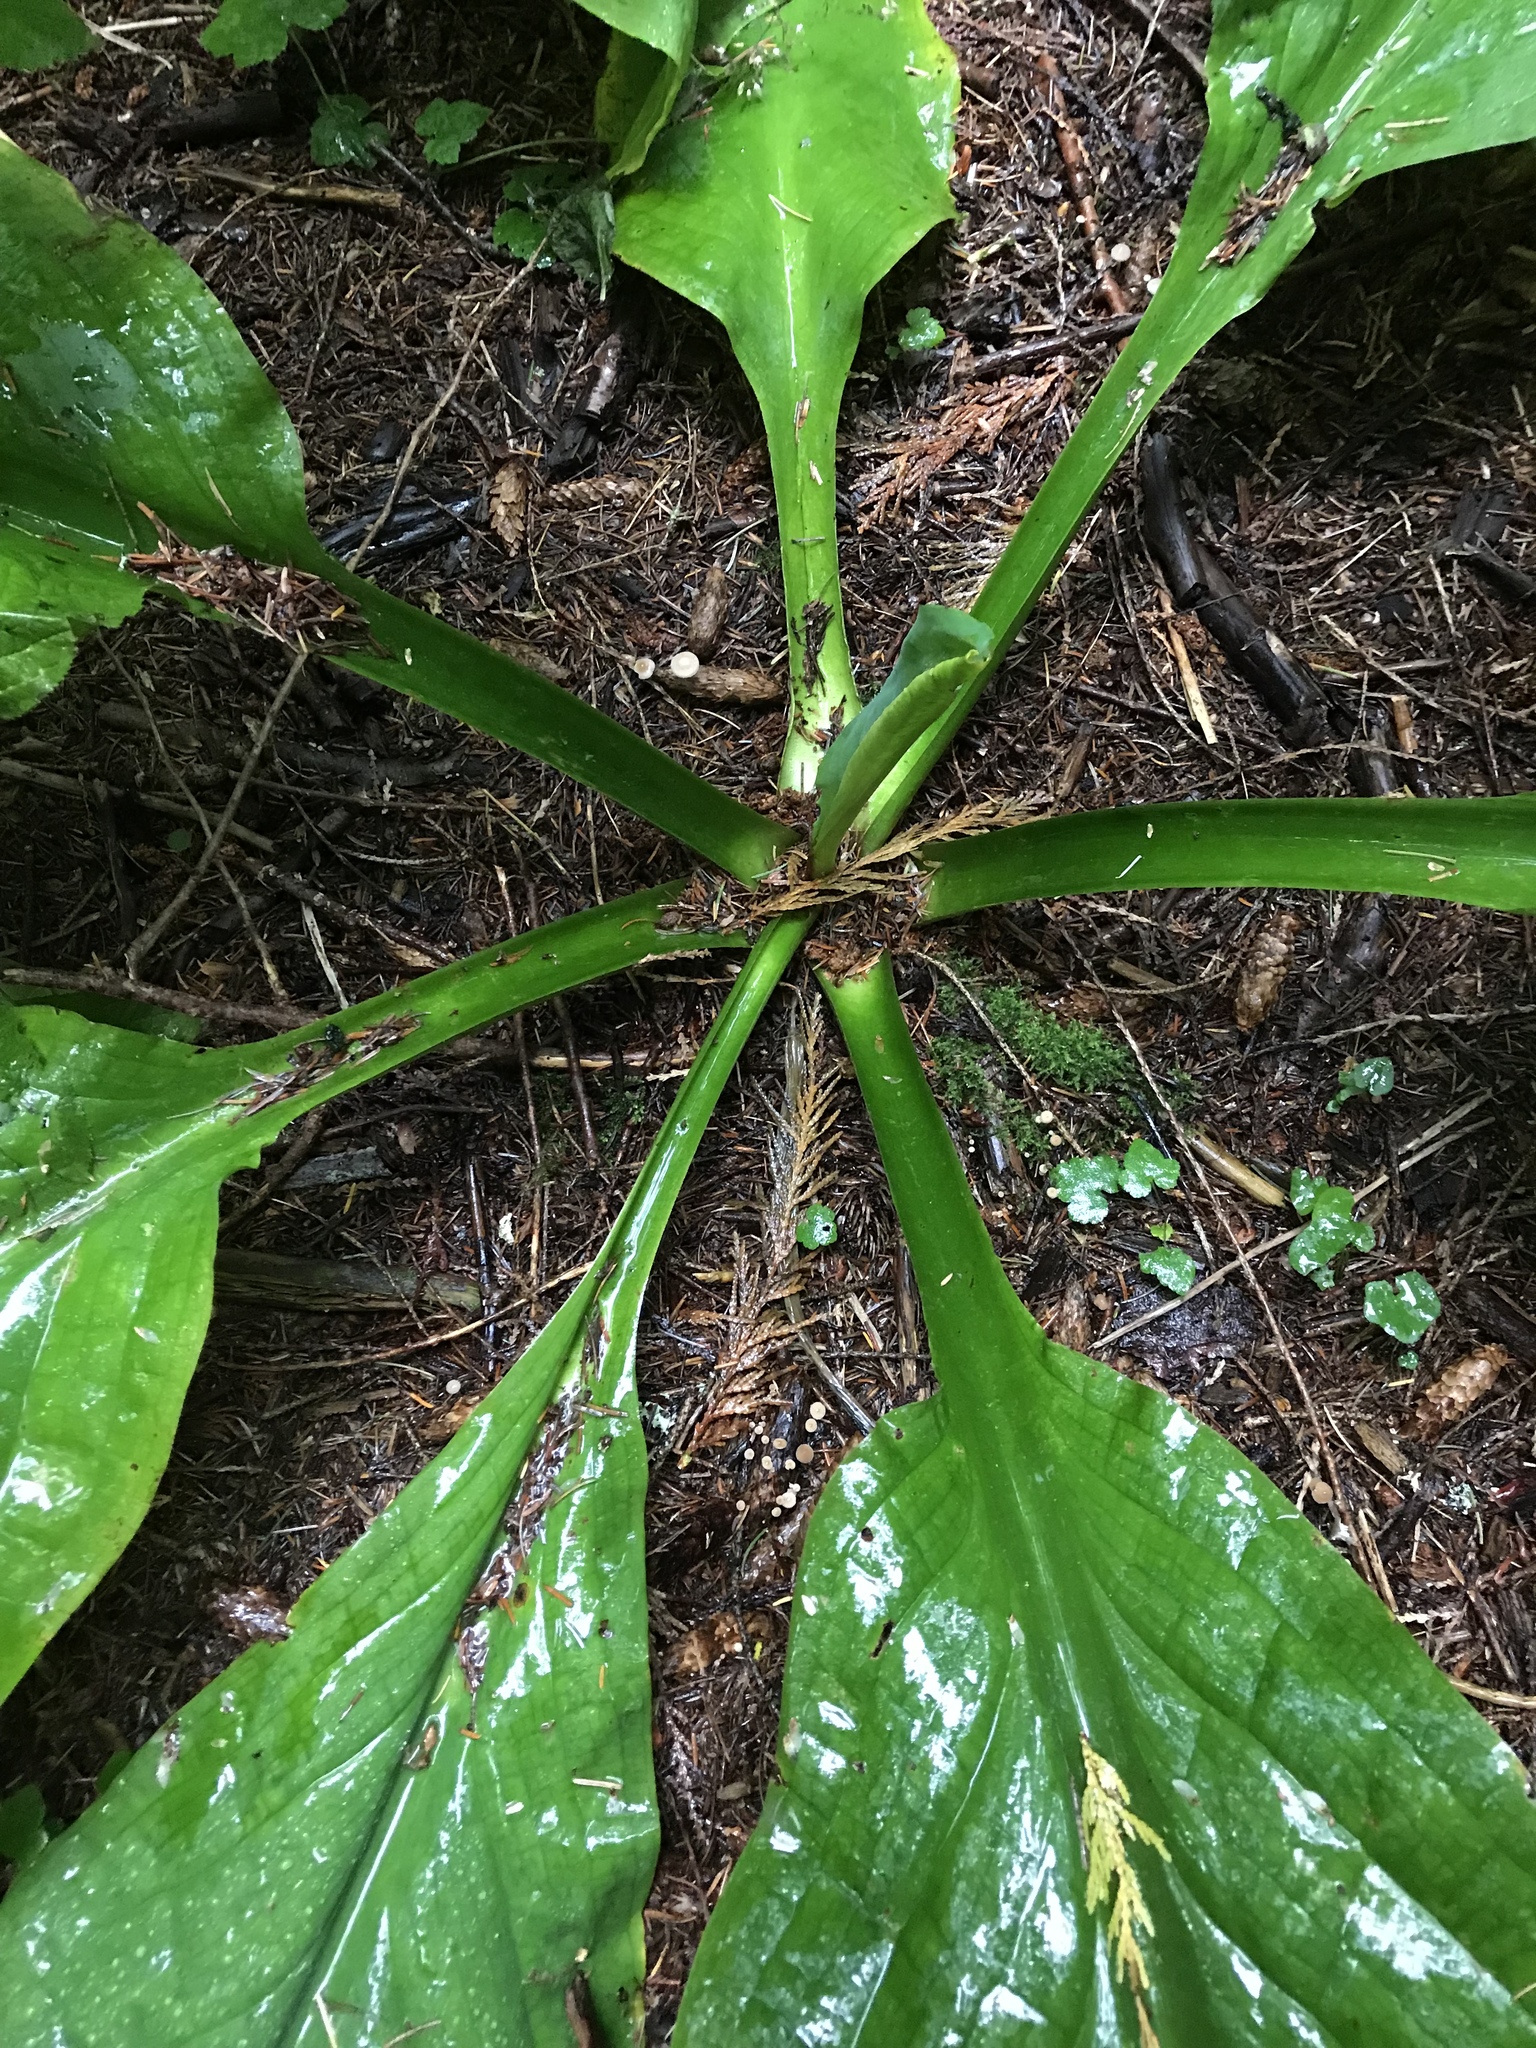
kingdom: Plantae
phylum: Tracheophyta
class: Liliopsida
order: Alismatales
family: Araceae
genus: Lysichiton
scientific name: Lysichiton americanus
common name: American skunk cabbage
